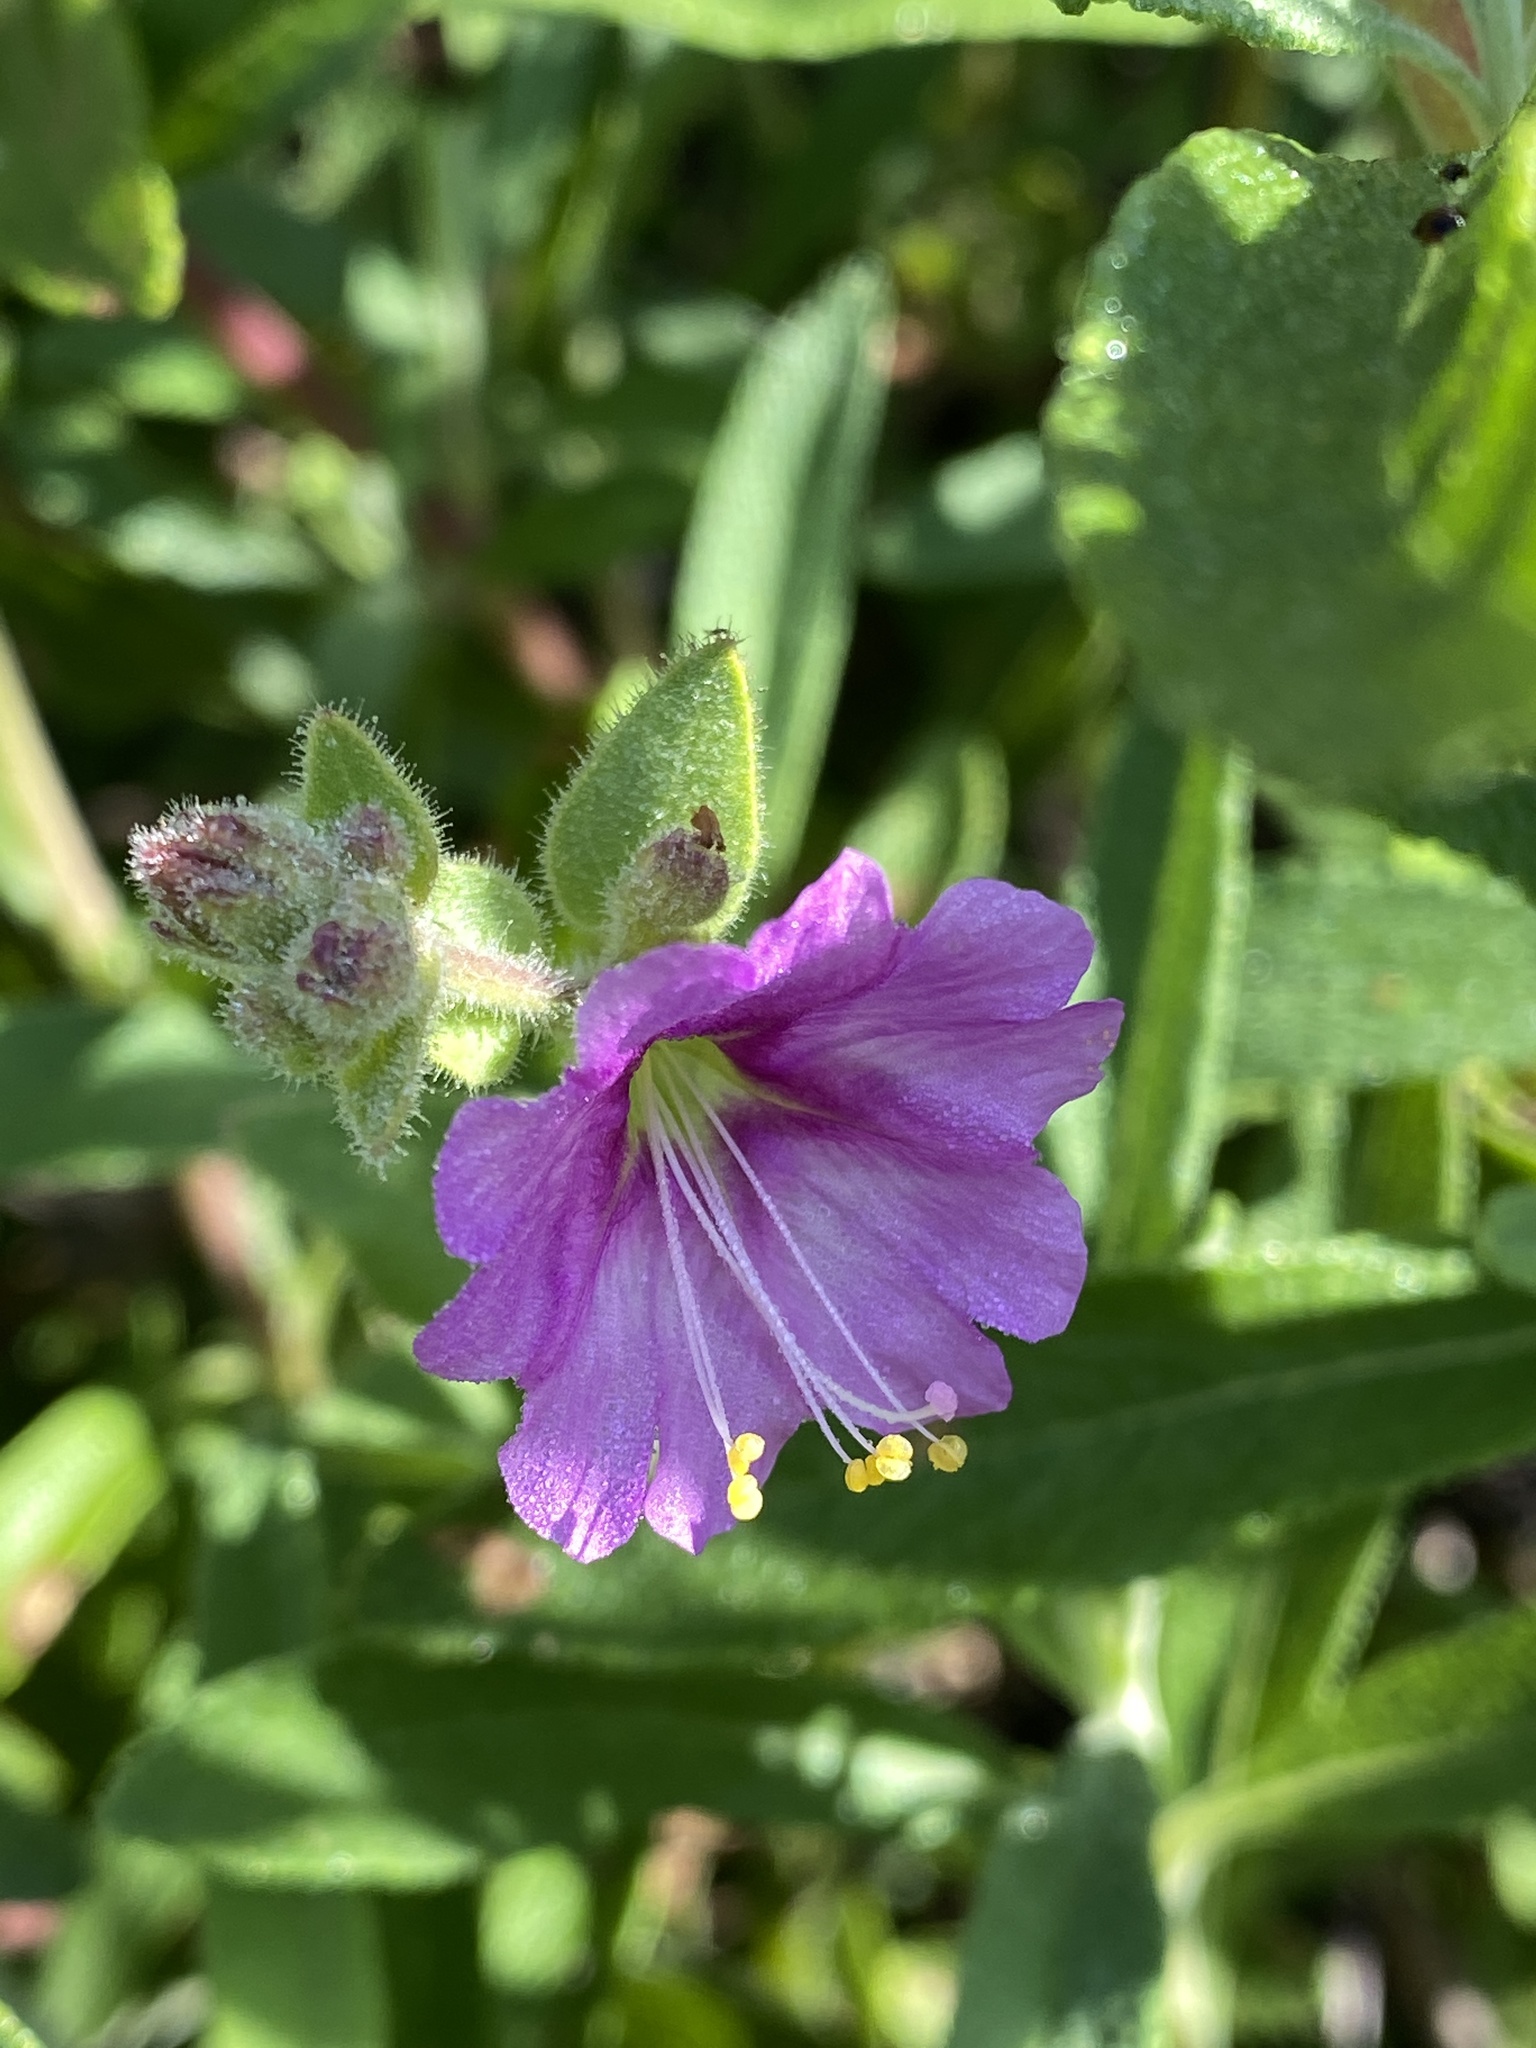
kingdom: Plantae
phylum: Tracheophyta
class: Magnoliopsida
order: Caryophyllales
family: Nyctaginaceae
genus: Mirabilis
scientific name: Mirabilis laevis
